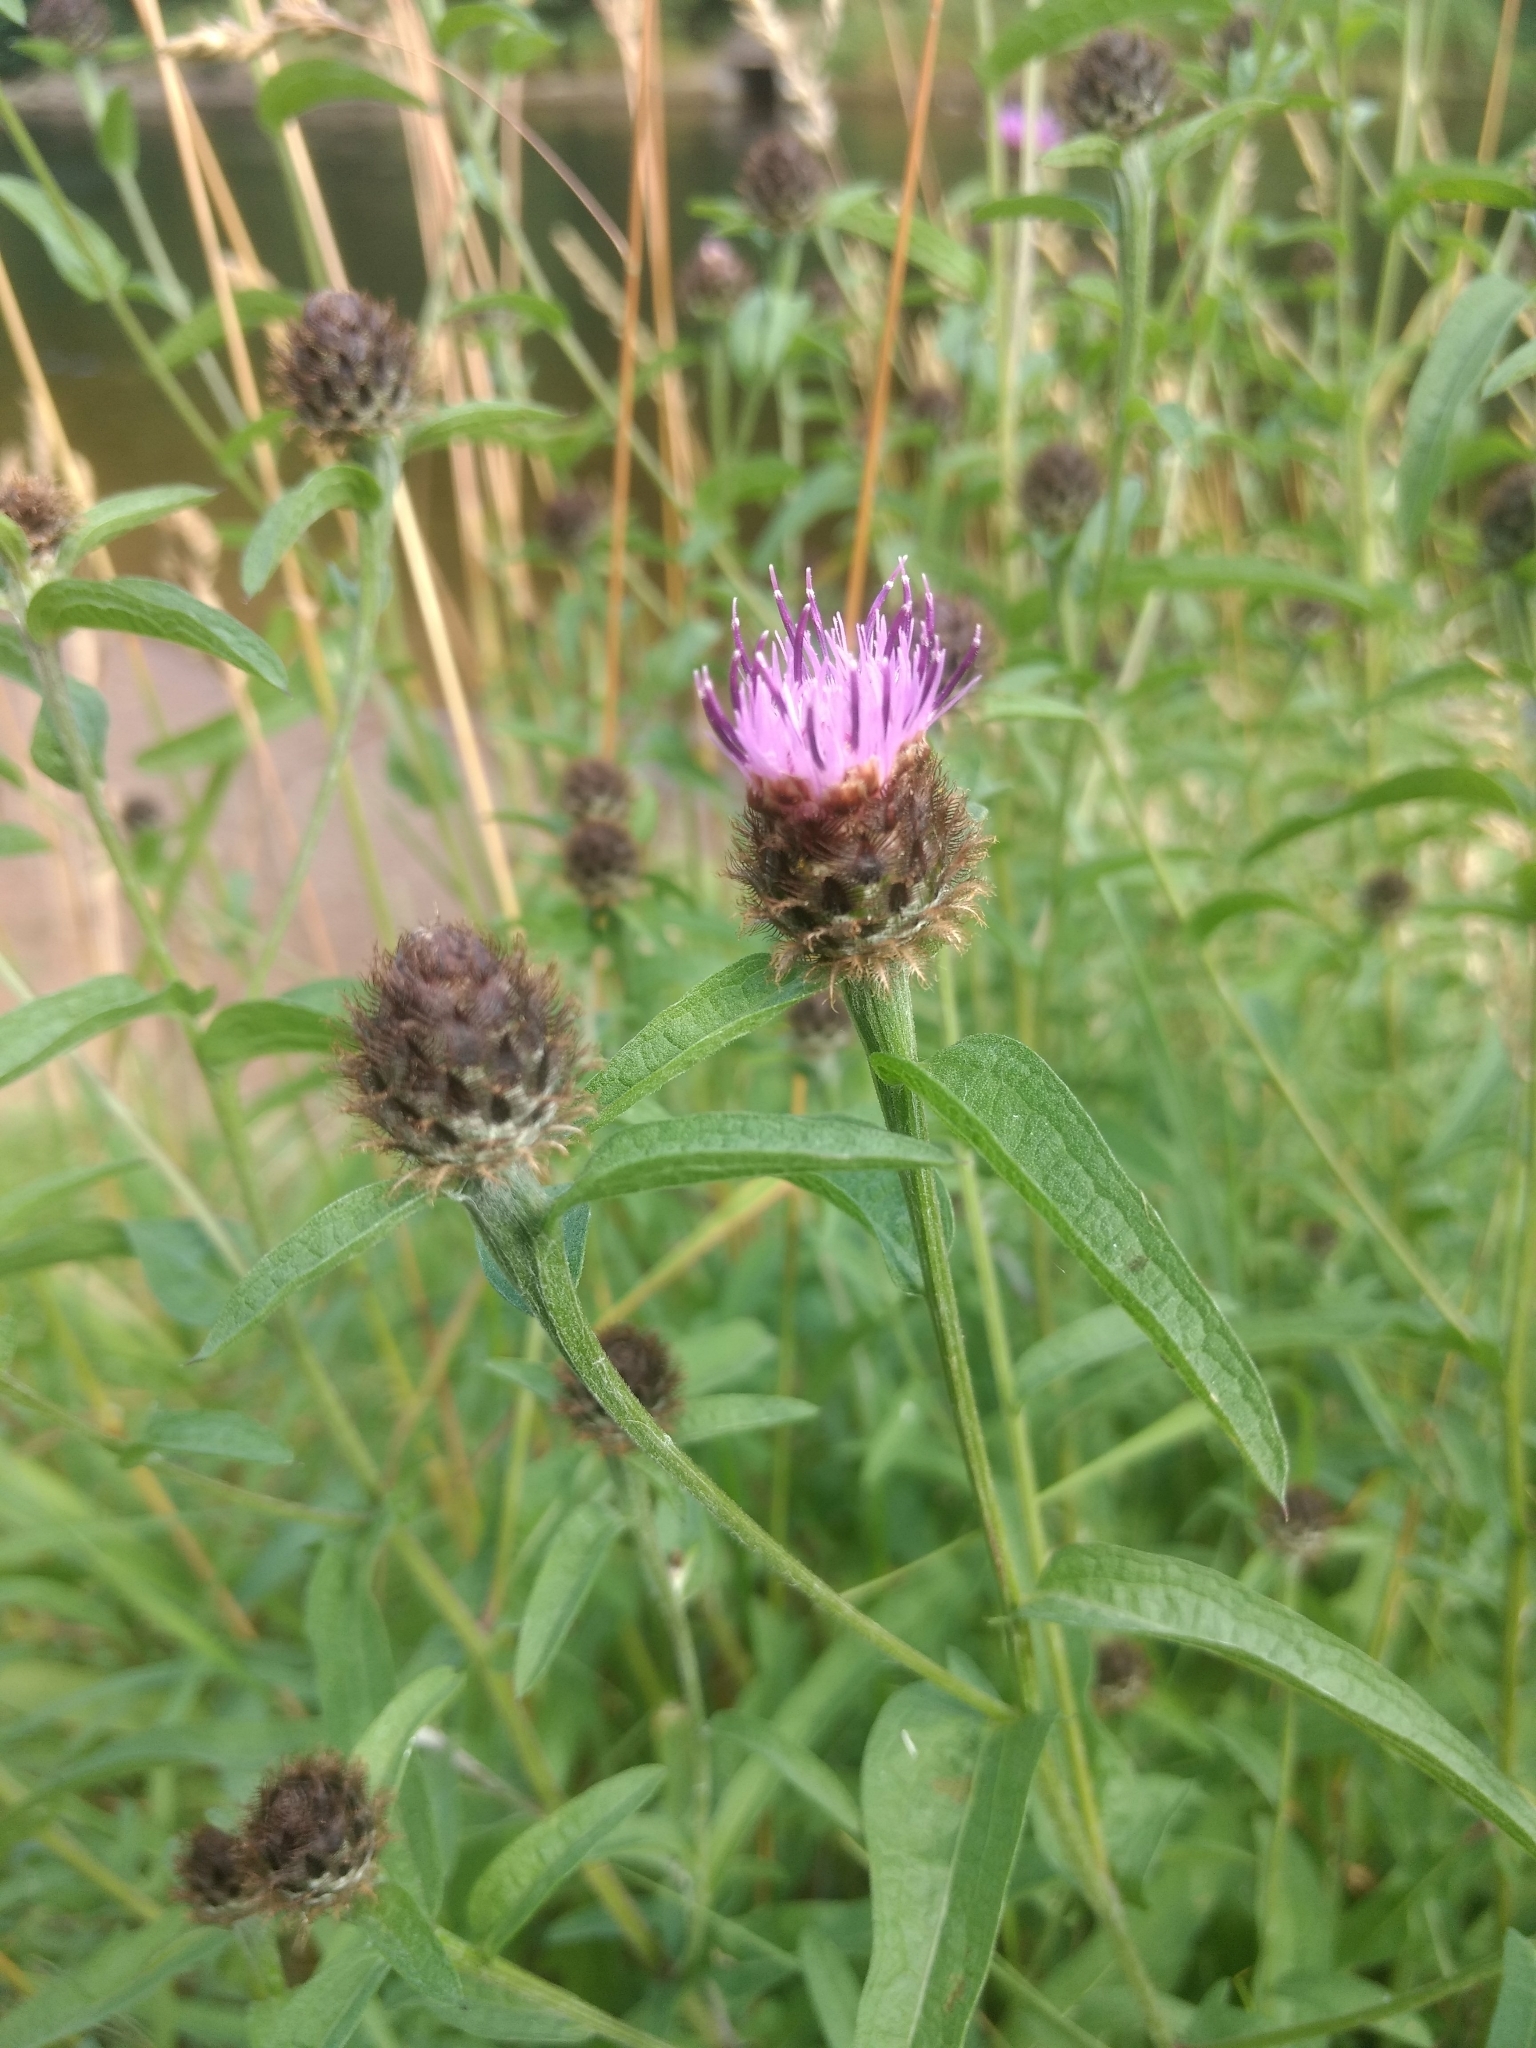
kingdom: Plantae
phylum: Tracheophyta
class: Magnoliopsida
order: Asterales
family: Asteraceae
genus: Centaurea
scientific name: Centaurea nigra
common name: Lesser knapweed
